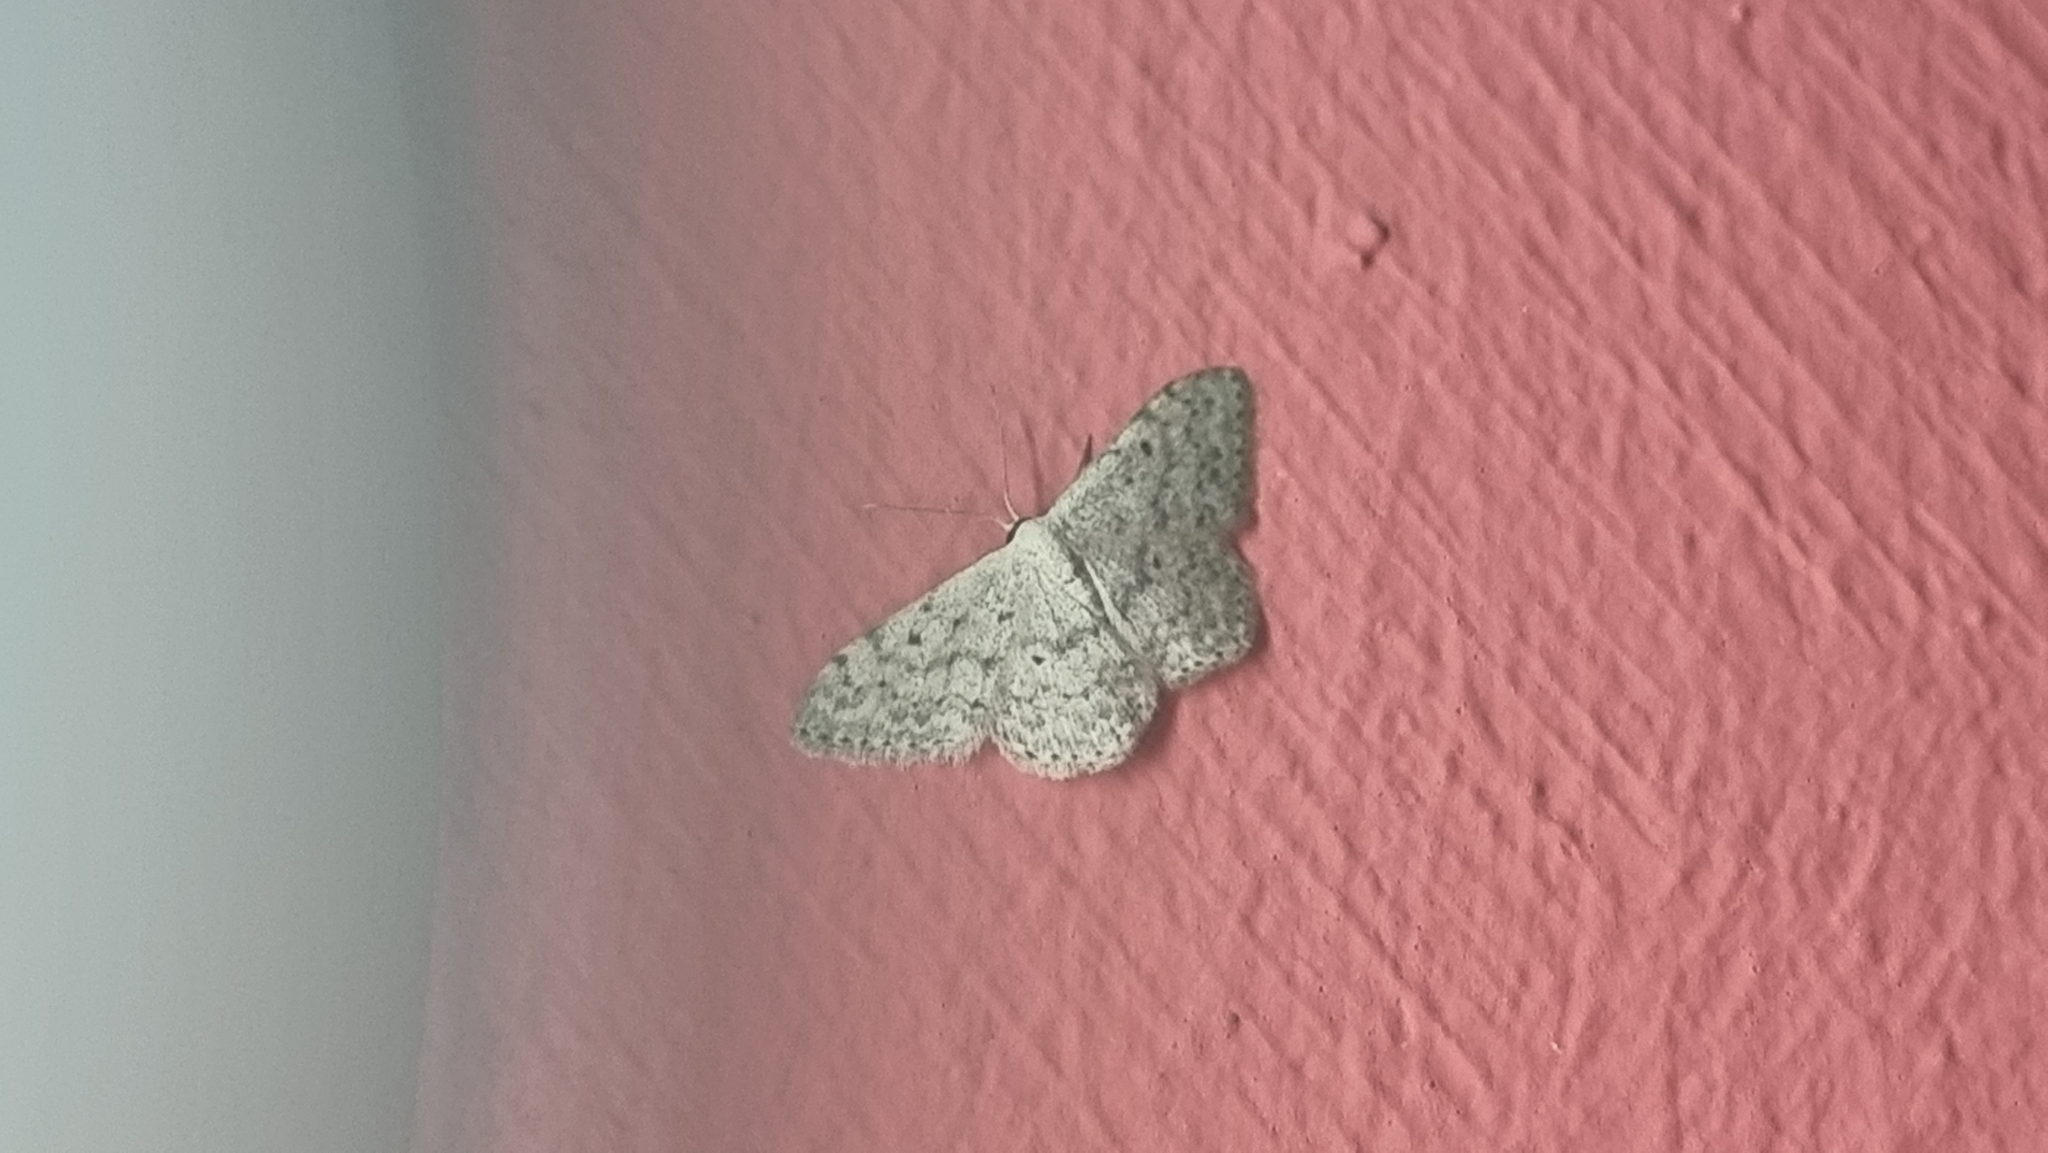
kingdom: Animalia
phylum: Arthropoda
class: Insecta
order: Lepidoptera
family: Geometridae
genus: Scopula
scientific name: Scopula marginepunctata
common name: Mullein wave
